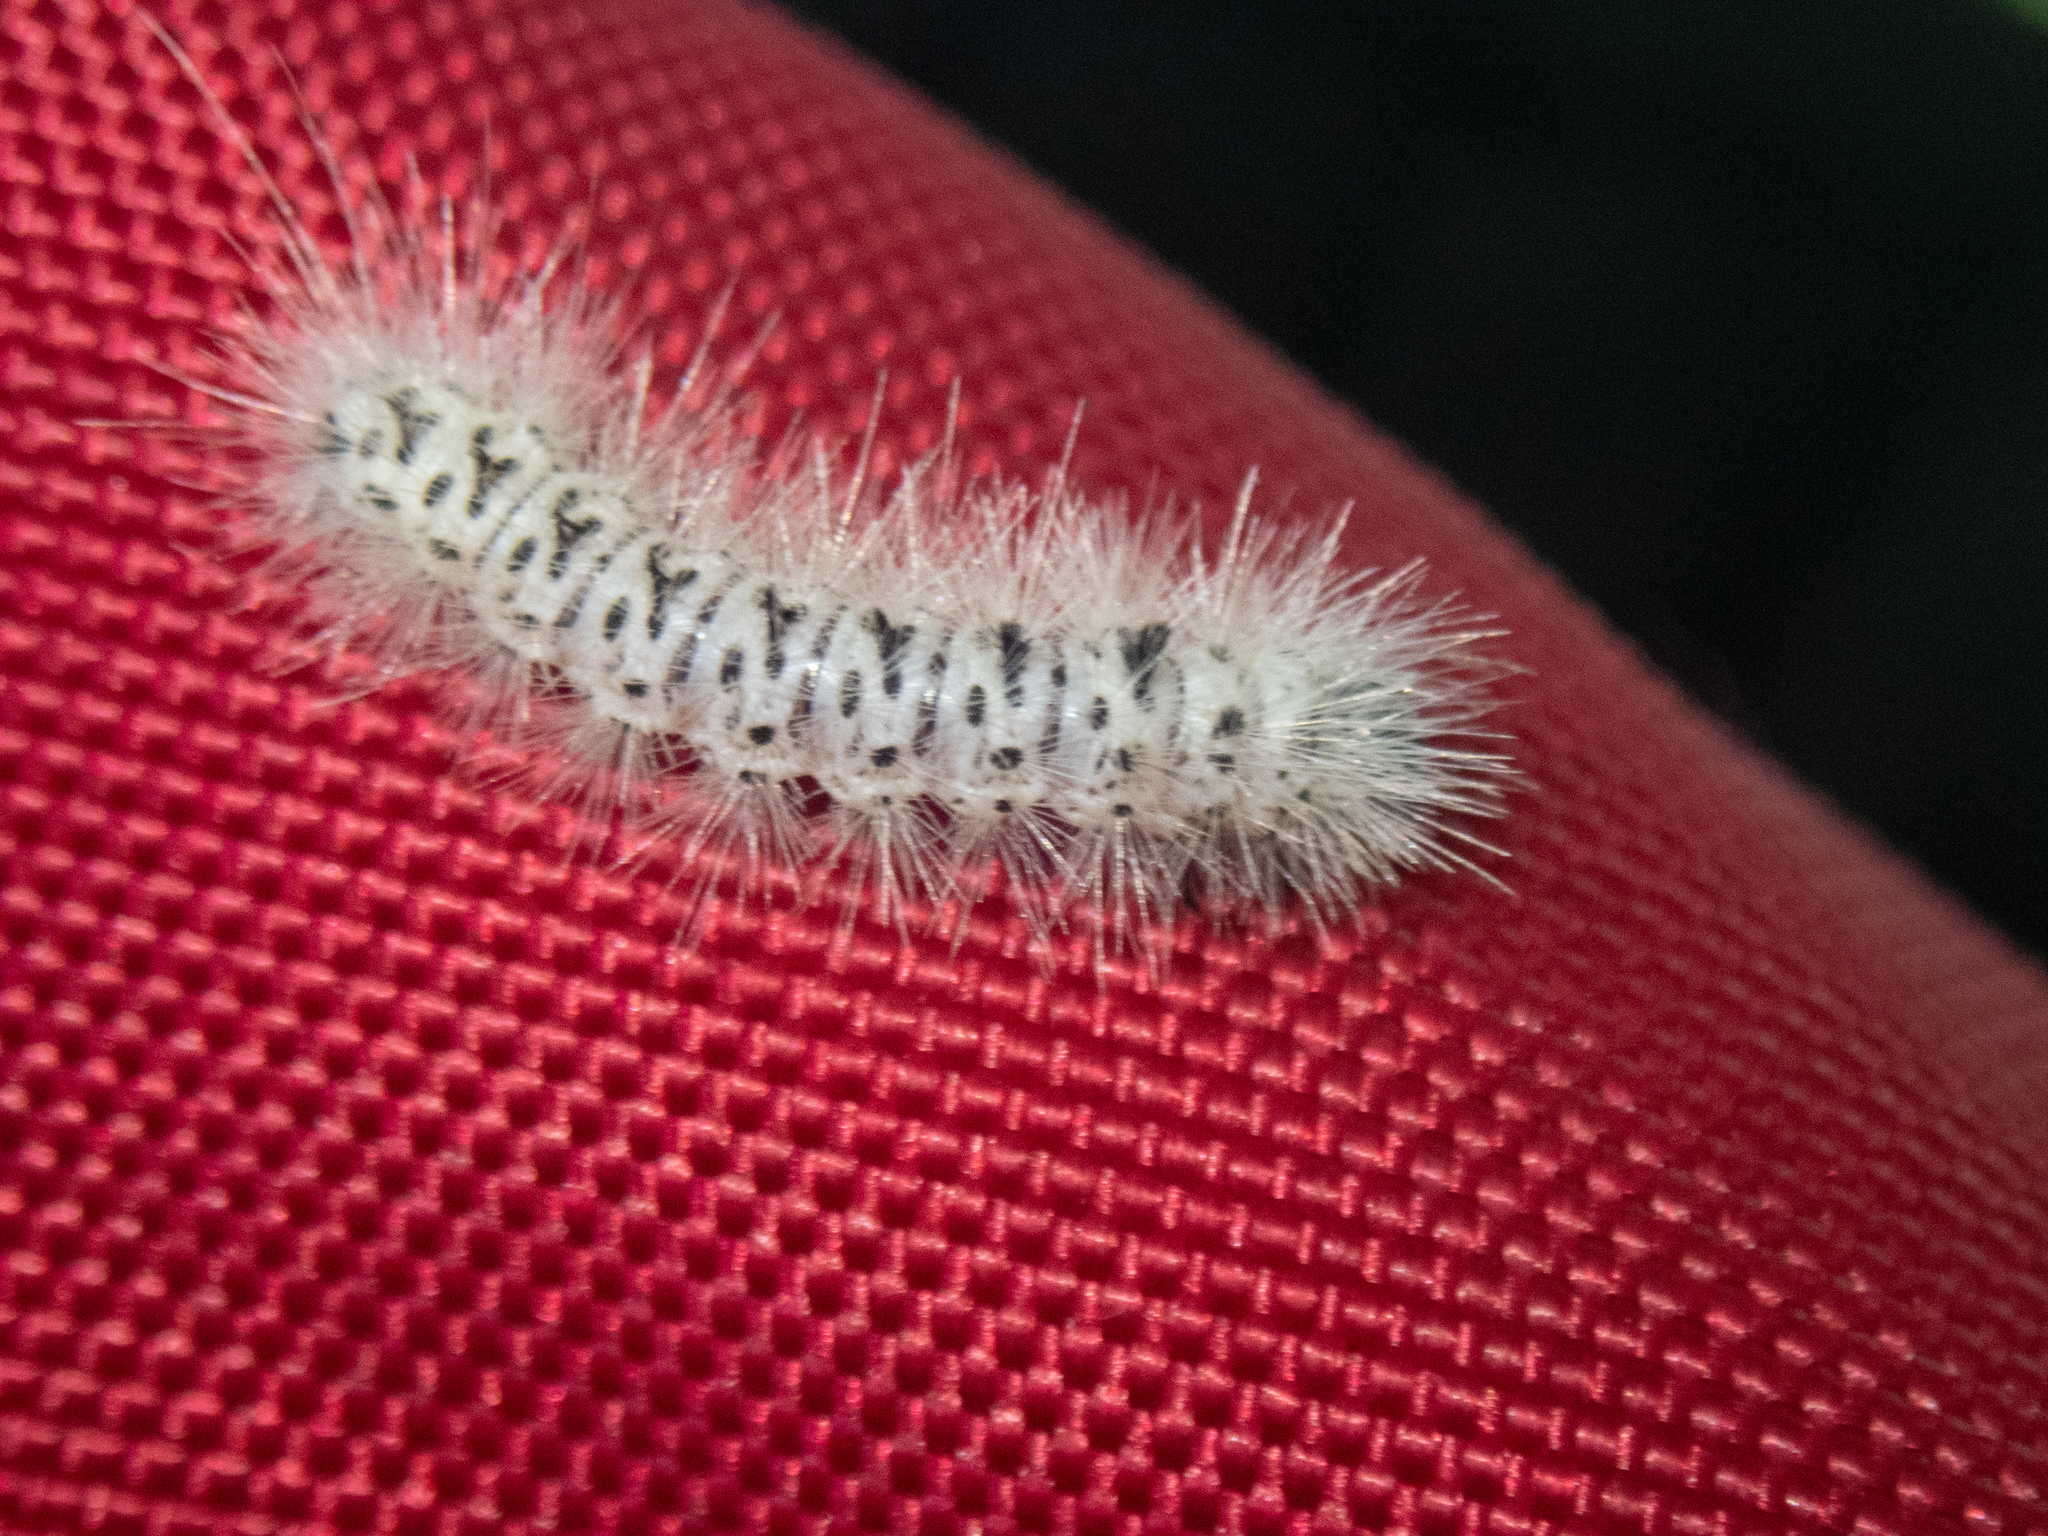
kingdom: Animalia
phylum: Arthropoda
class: Insecta
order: Lepidoptera
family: Erebidae
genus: Lophocampa
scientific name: Lophocampa caryae
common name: Hickory tussock moth
